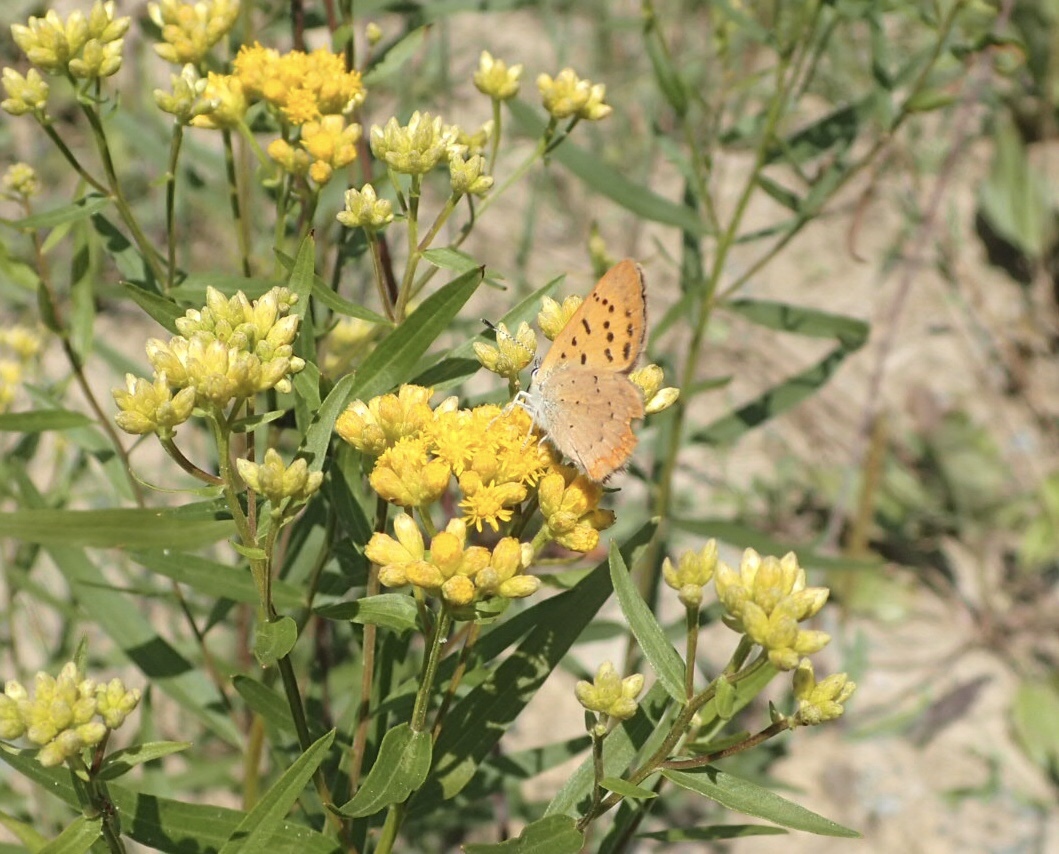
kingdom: Animalia
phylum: Arthropoda
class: Insecta
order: Lepidoptera
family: Lycaenidae
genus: Tharsalea
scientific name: Tharsalea dorcas
